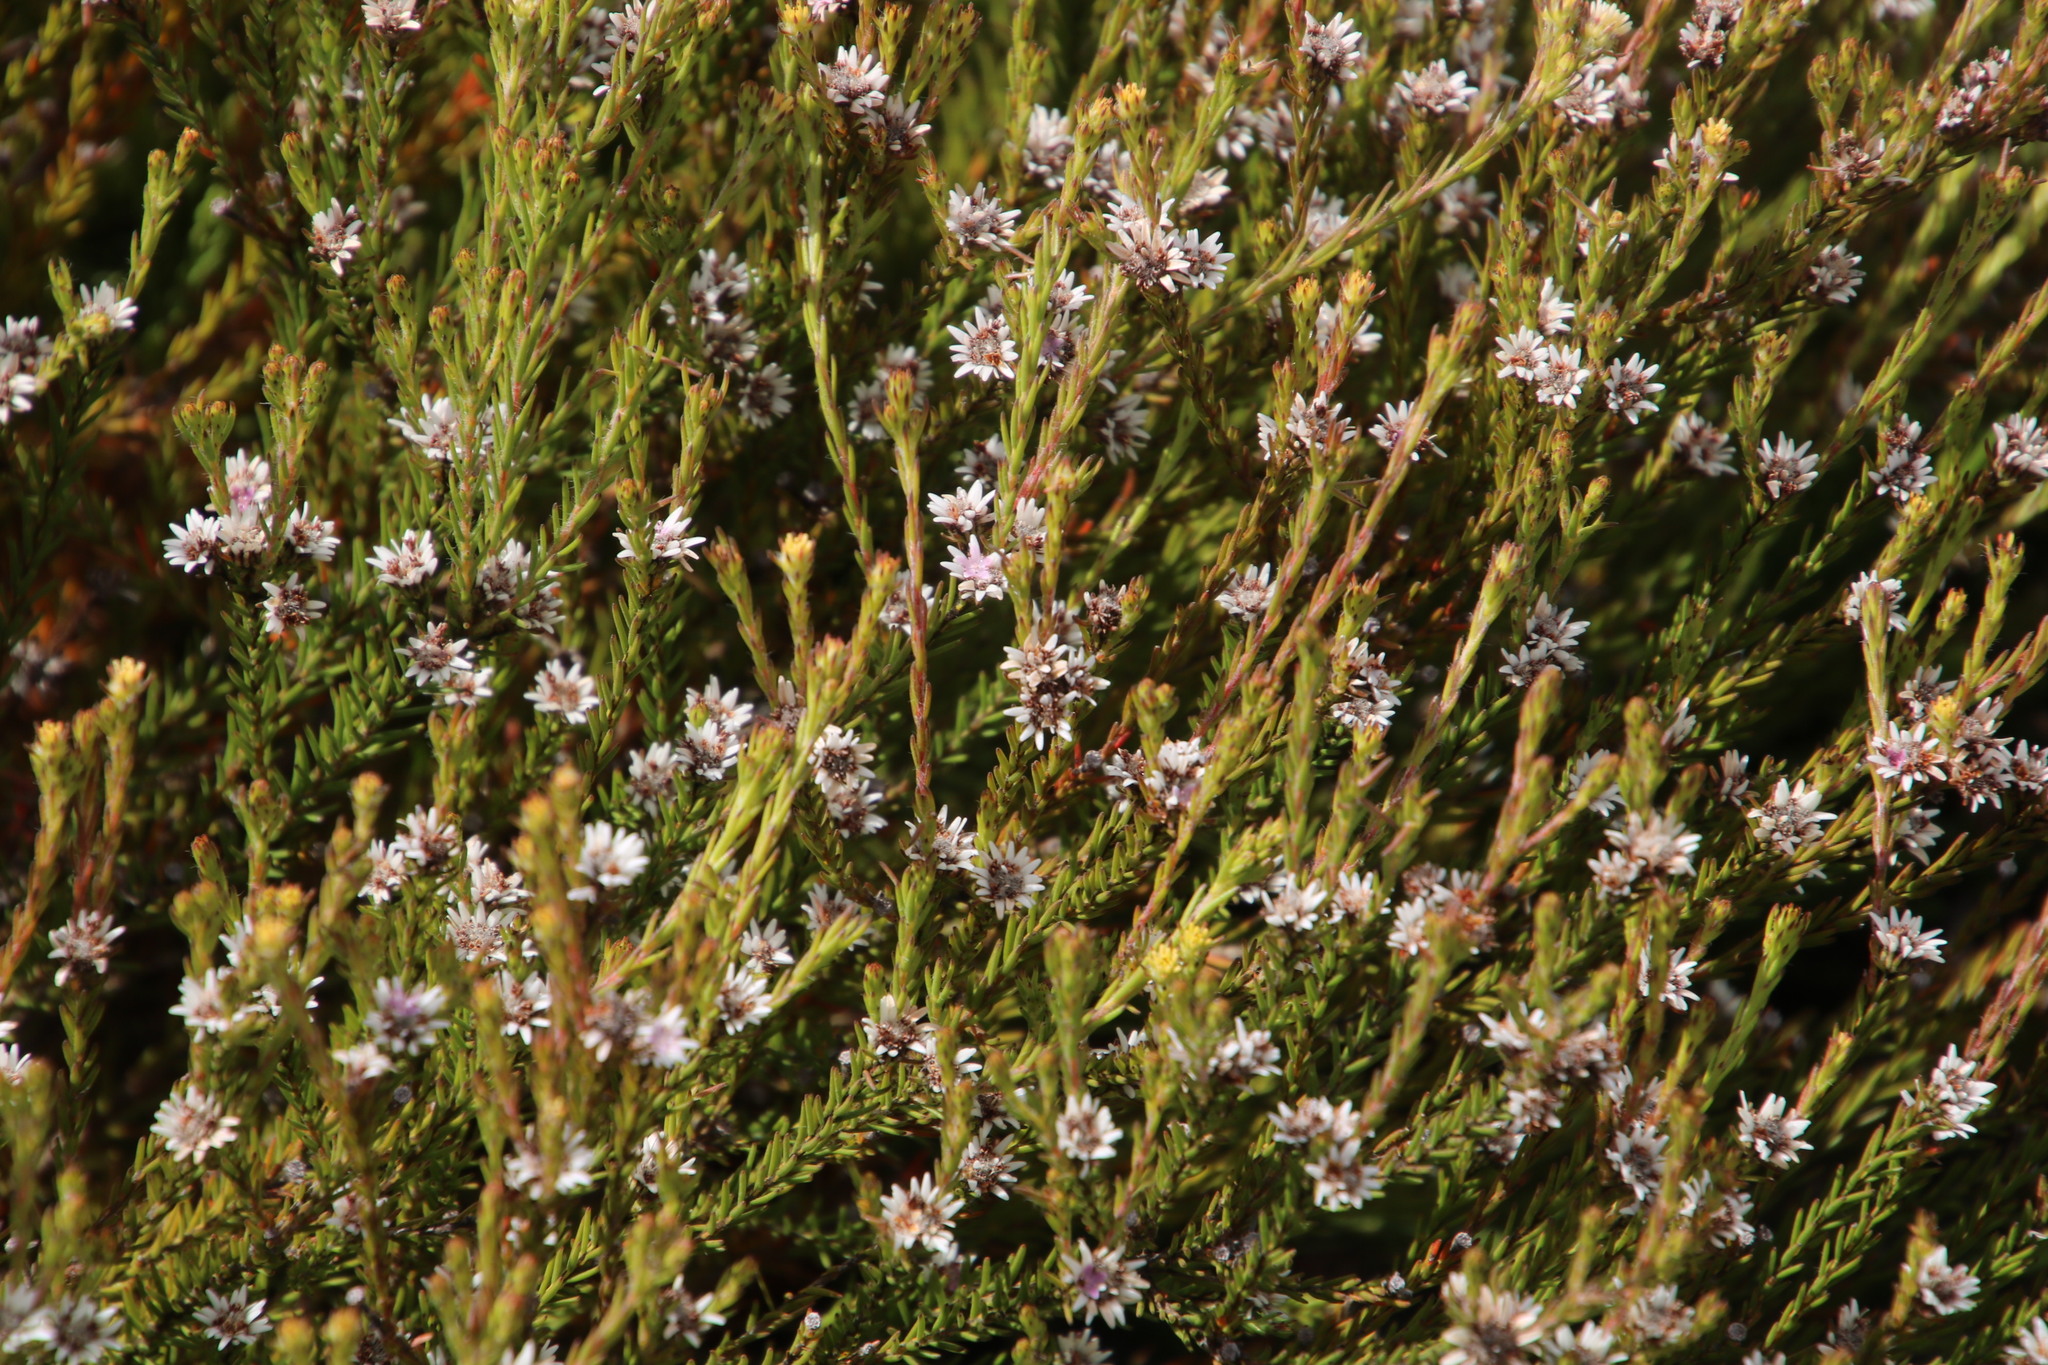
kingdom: Plantae
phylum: Tracheophyta
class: Magnoliopsida
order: Bruniales
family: Bruniaceae
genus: Staavia
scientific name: Staavia radiata
